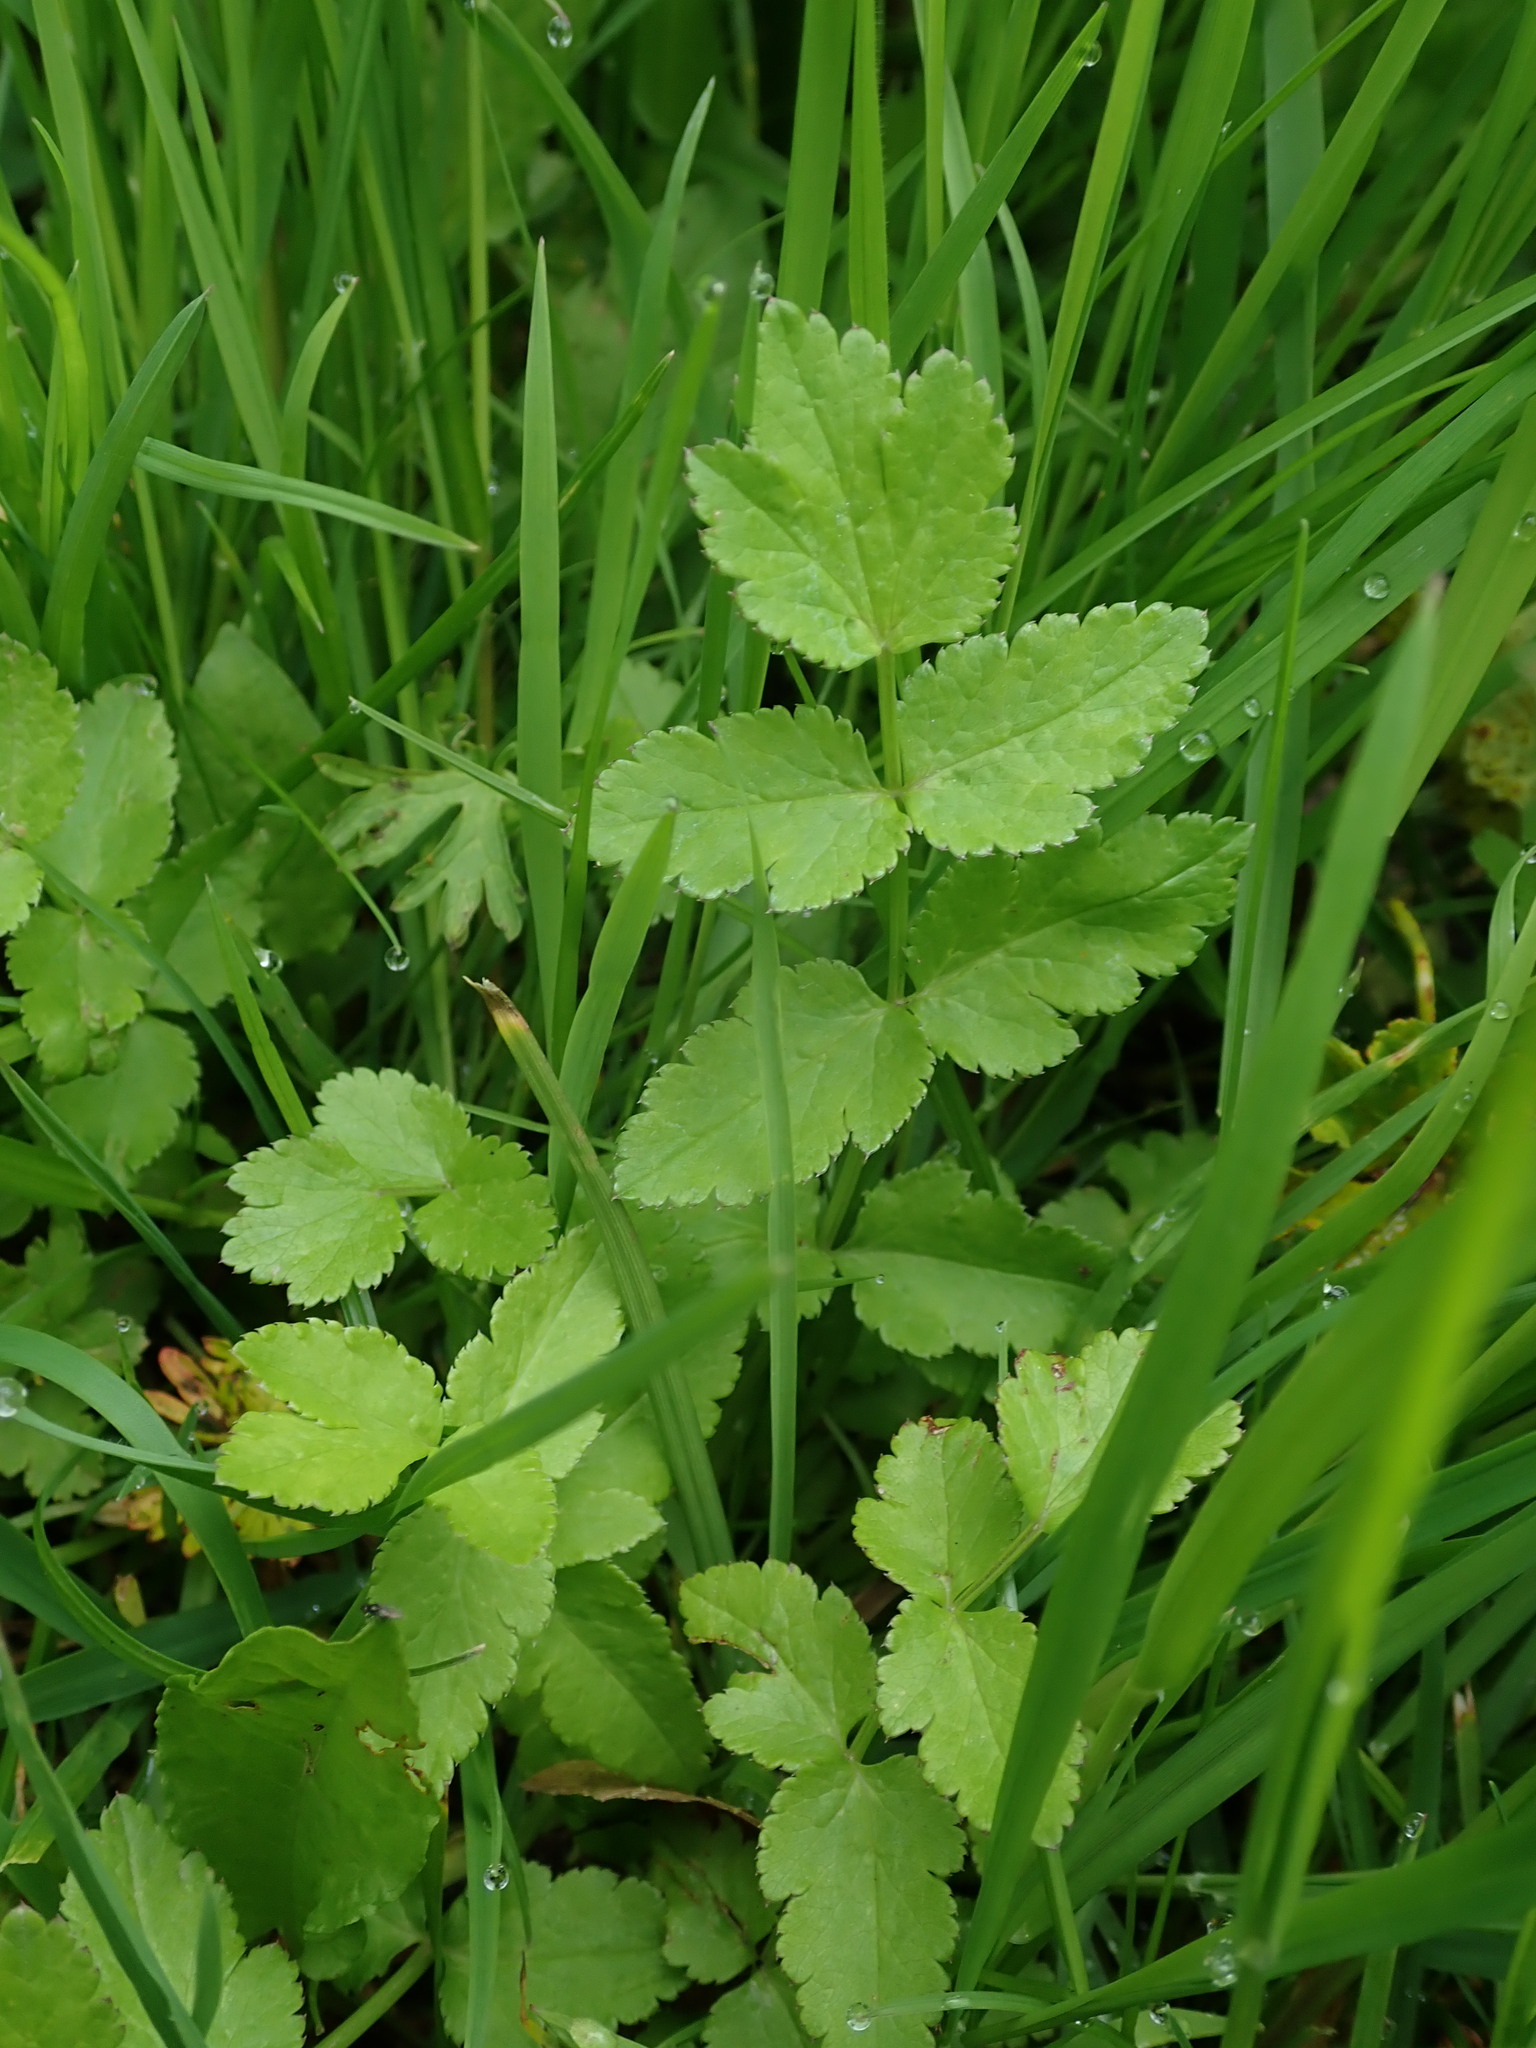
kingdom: Plantae
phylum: Tracheophyta
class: Magnoliopsida
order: Apiales
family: Apiaceae
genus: Sison
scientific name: Sison amomum
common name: Stone-parsley
